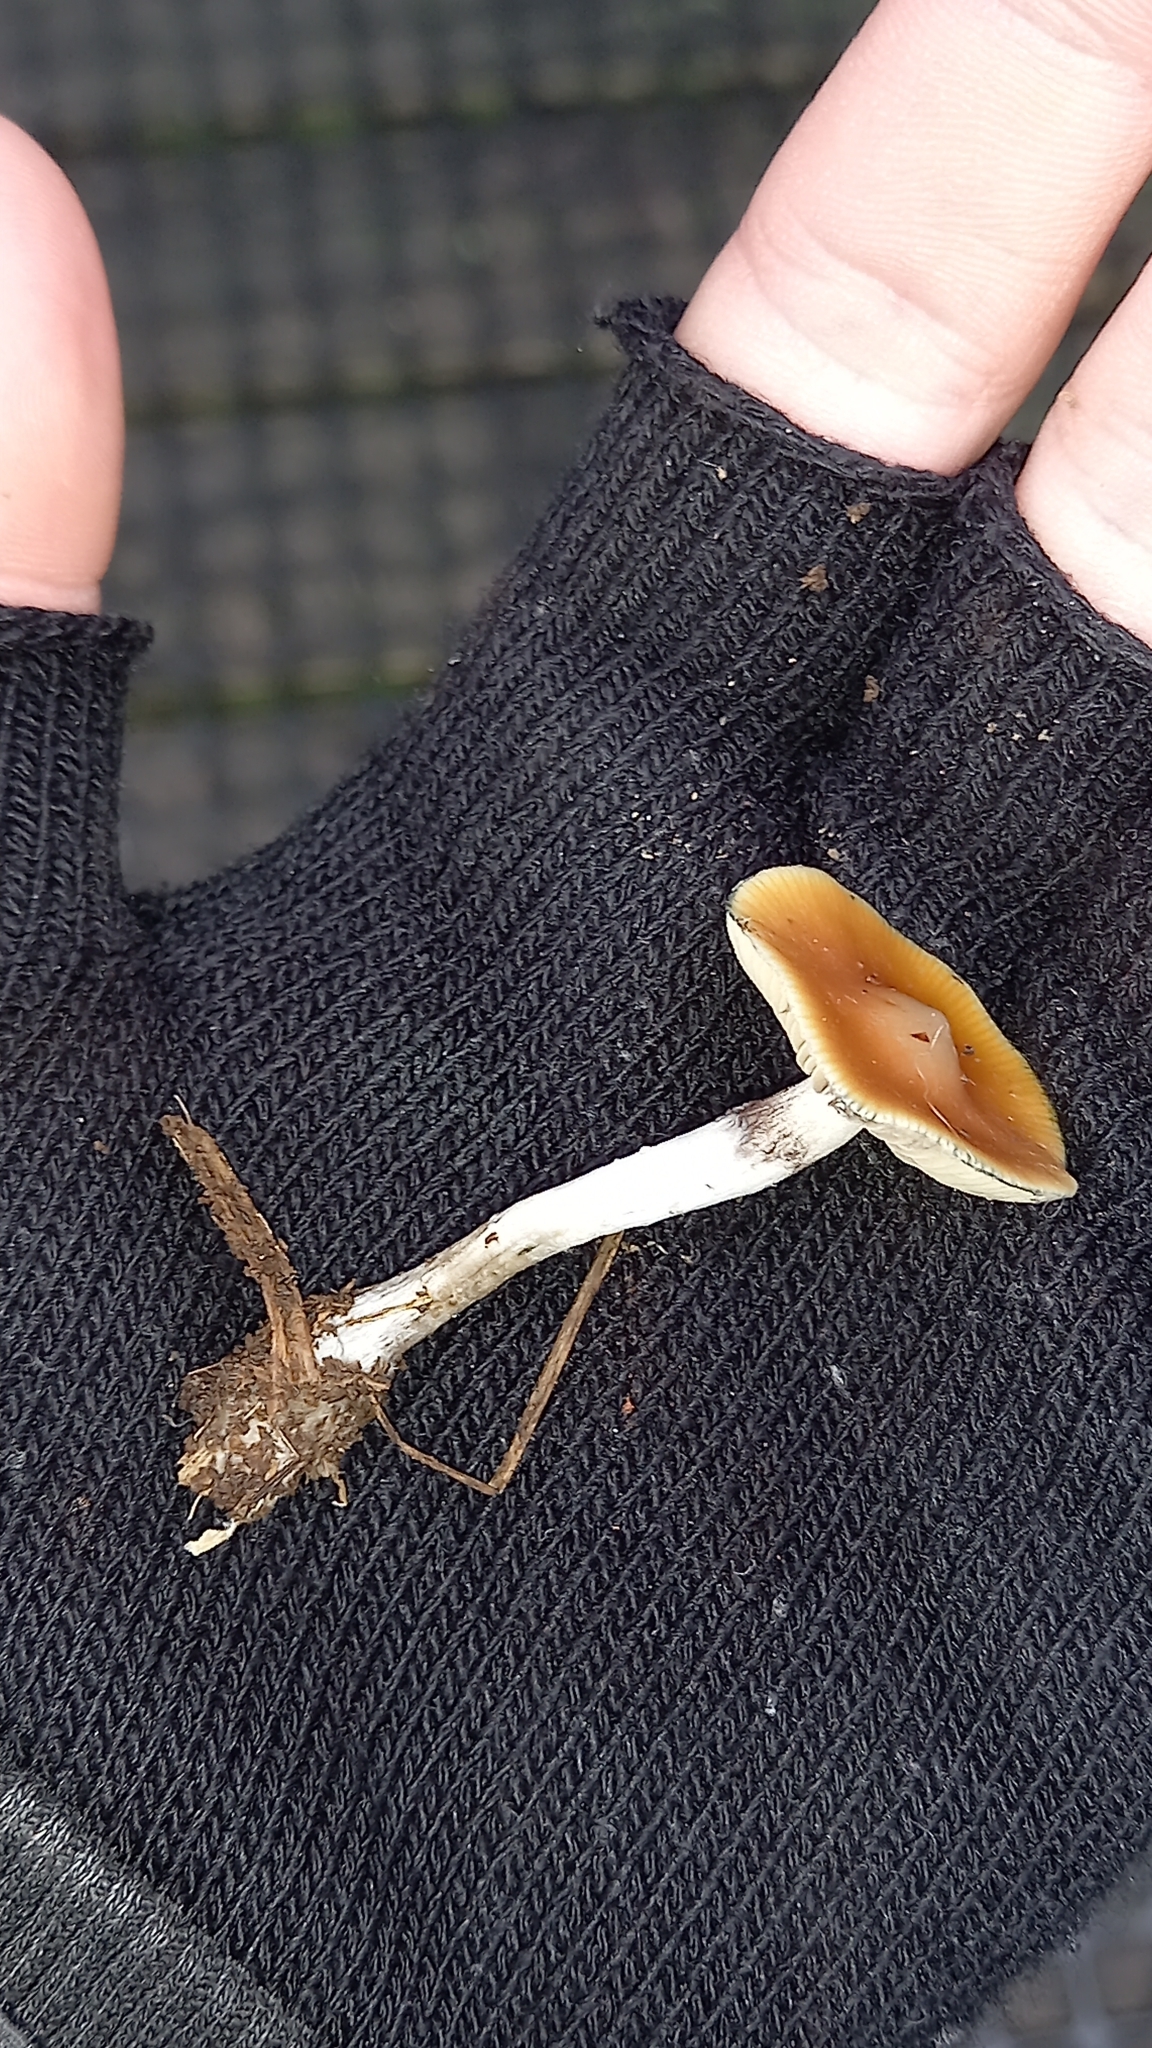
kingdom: Fungi
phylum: Basidiomycota
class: Agaricomycetes
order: Agaricales
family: Hymenogastraceae
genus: Psilocybe
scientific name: Psilocybe subaeruginosa
